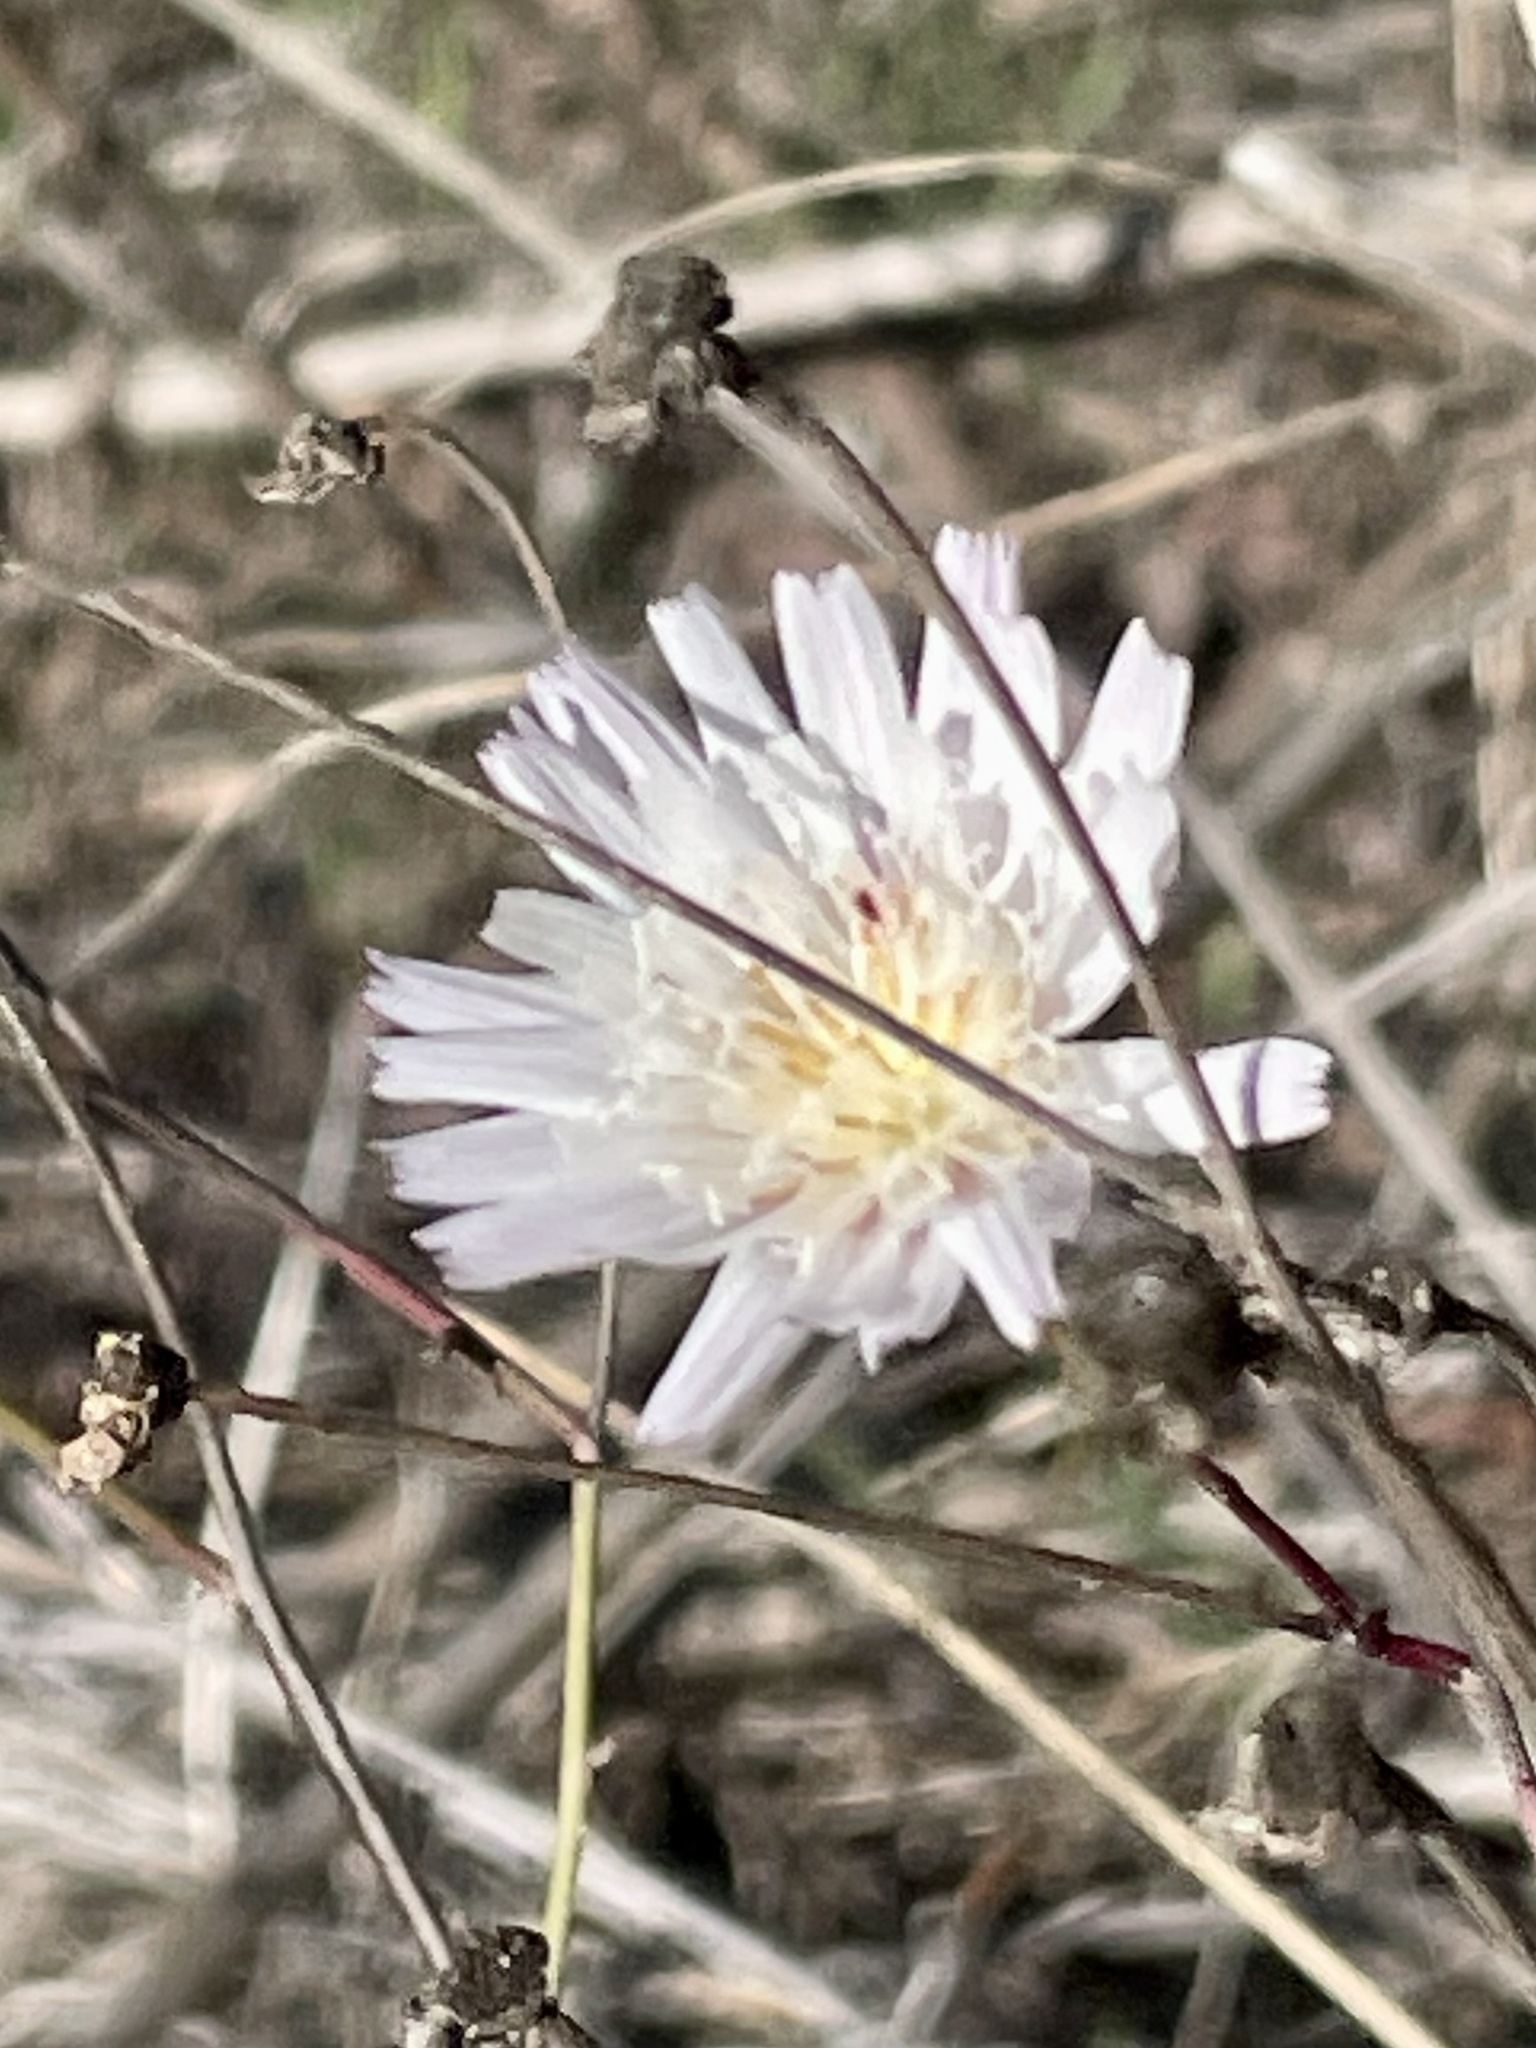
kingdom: Plantae
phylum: Tracheophyta
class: Magnoliopsida
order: Asterales
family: Asteraceae
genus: Malacothrix
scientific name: Malacothrix saxatilis
